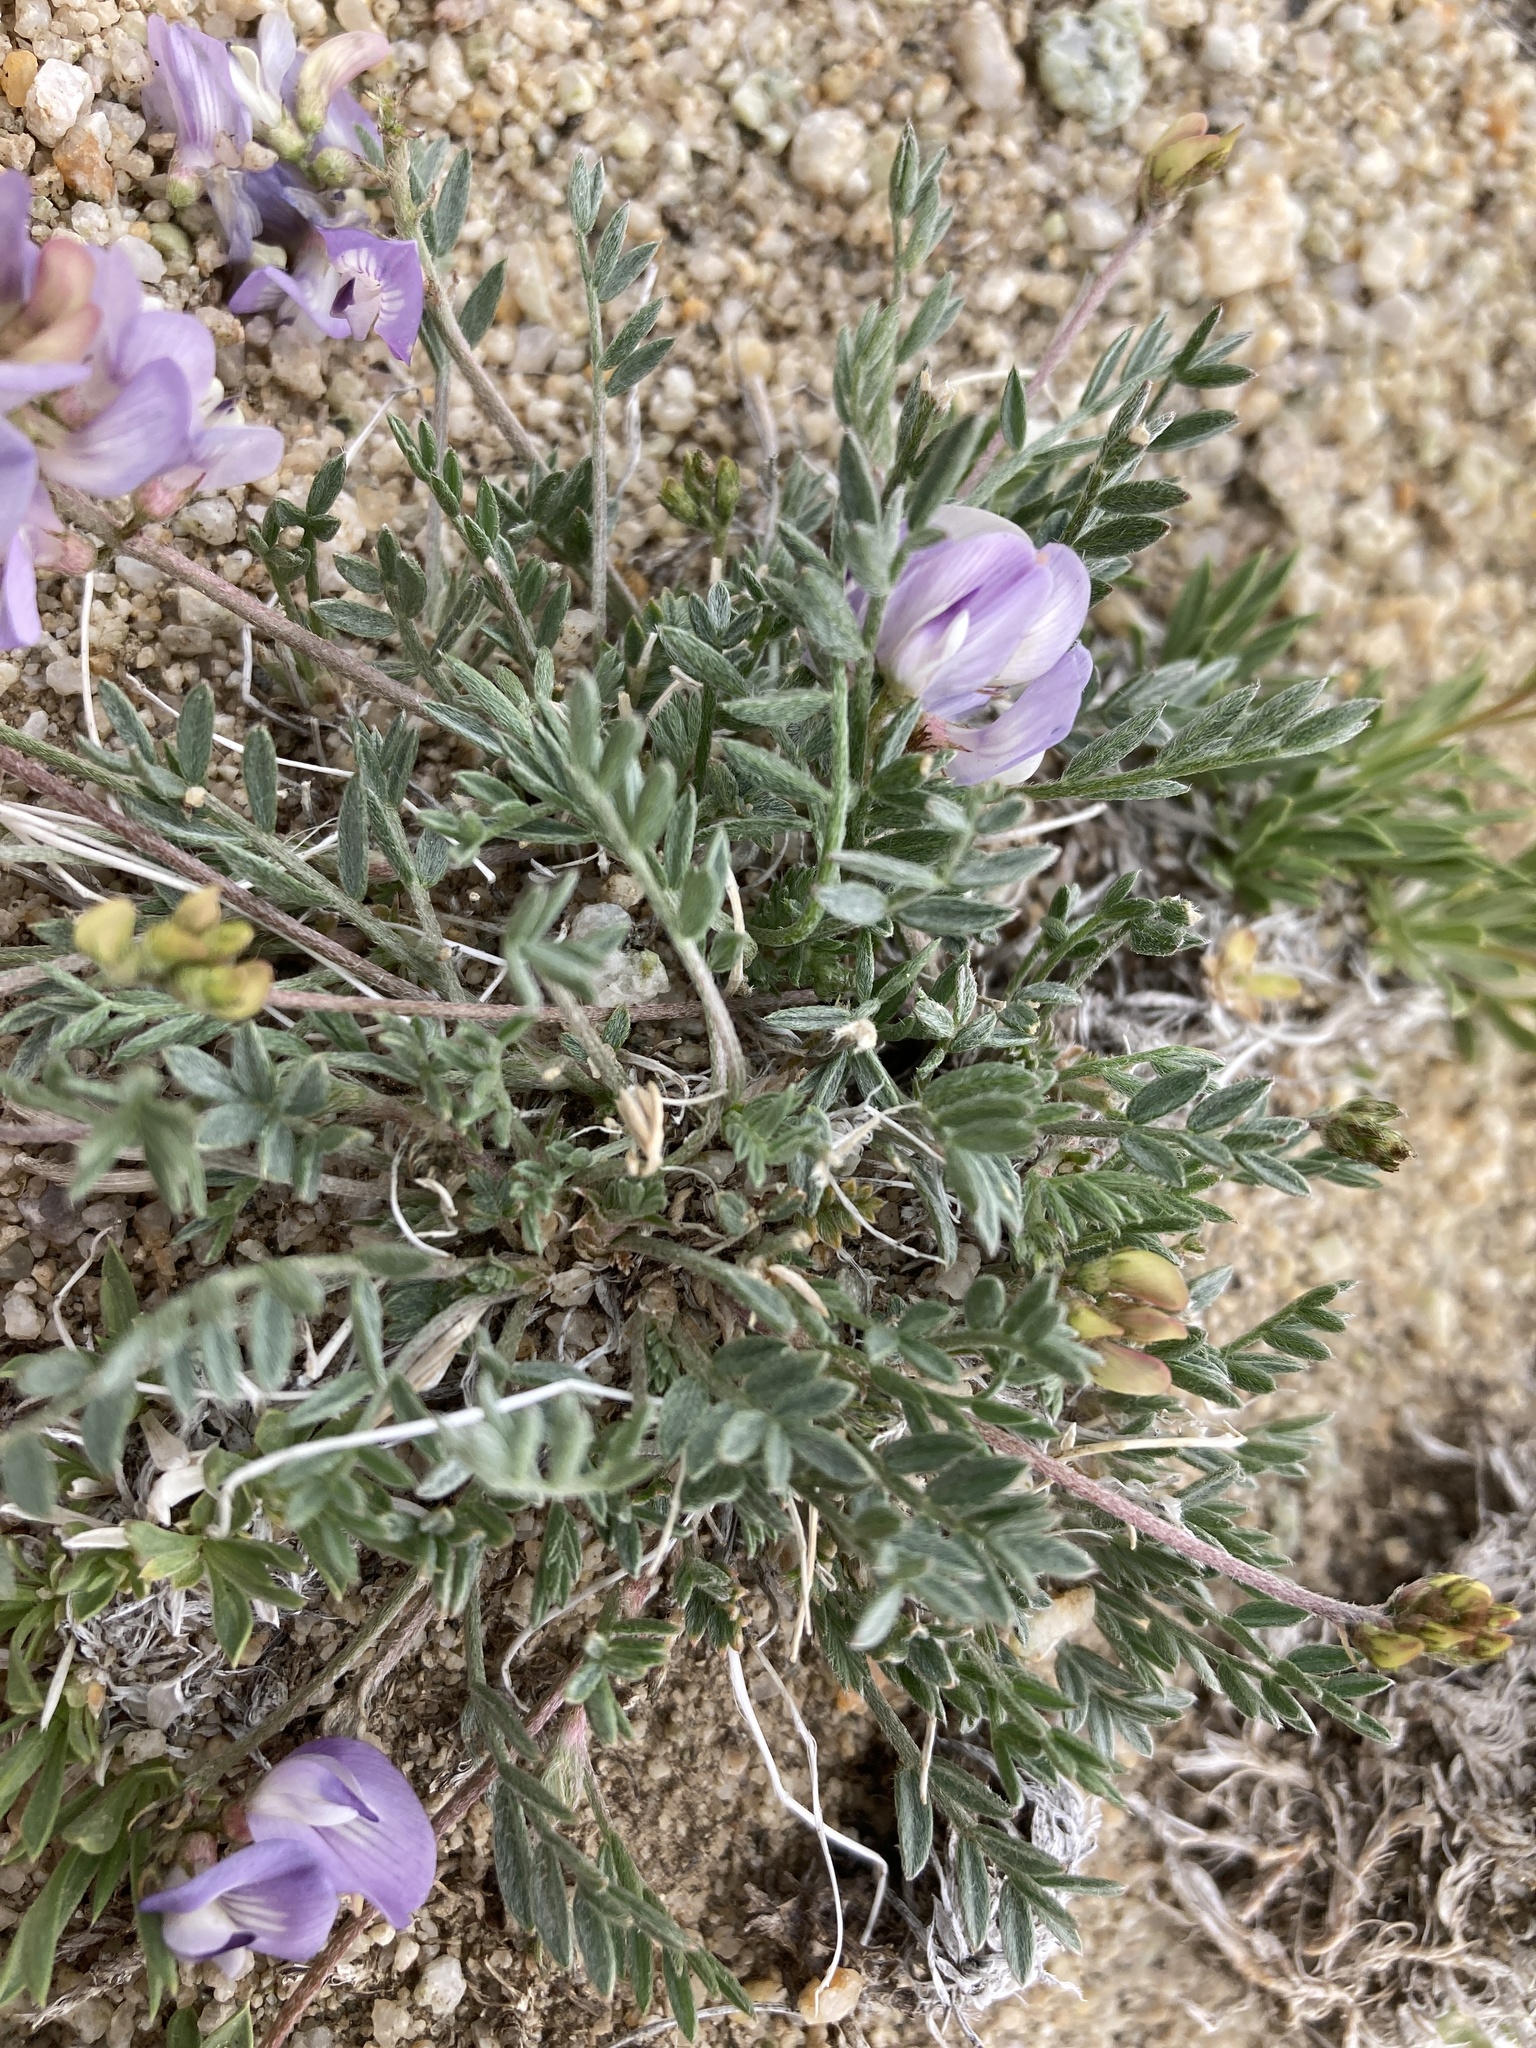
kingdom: Plantae
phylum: Tracheophyta
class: Magnoliopsida
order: Fabales
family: Fabaceae
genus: Astragalus
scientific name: Astragalus miser
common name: Timber milkvetch
